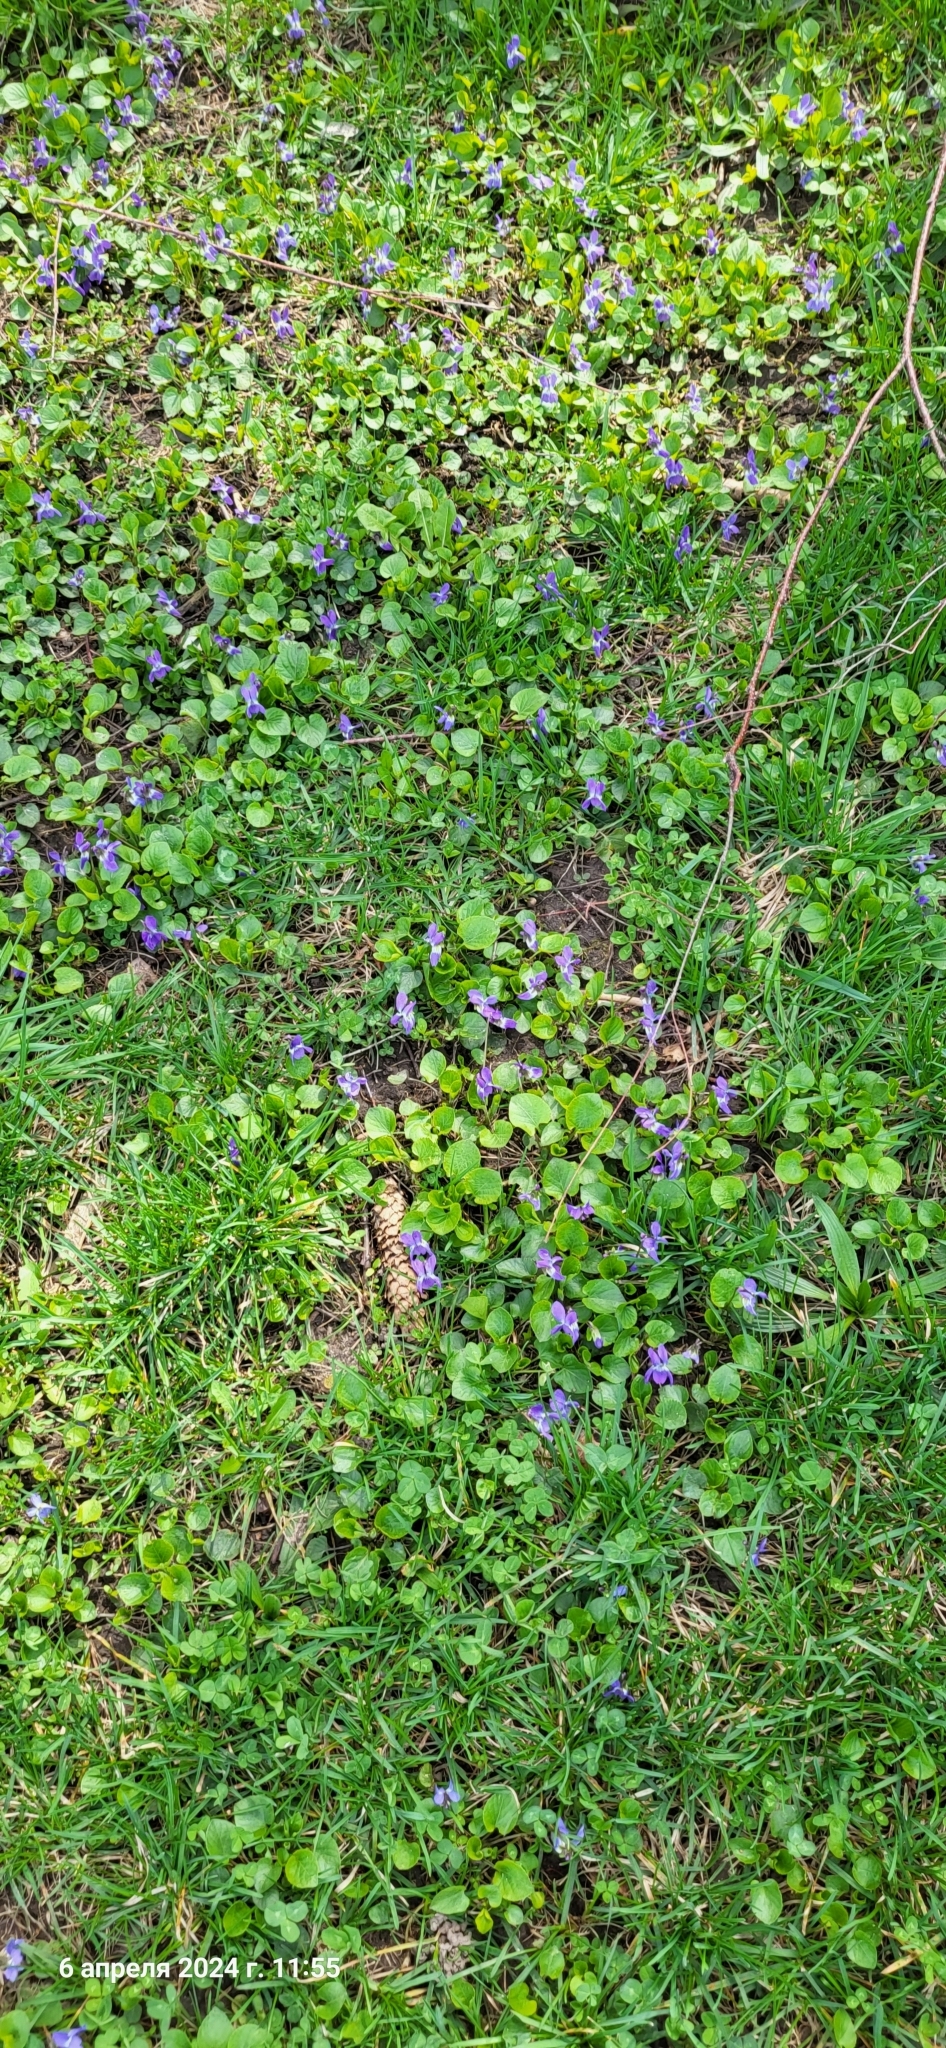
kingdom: Plantae
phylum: Tracheophyta
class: Magnoliopsida
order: Malpighiales
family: Violaceae
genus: Viola
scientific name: Viola odorata
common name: Sweet violet
